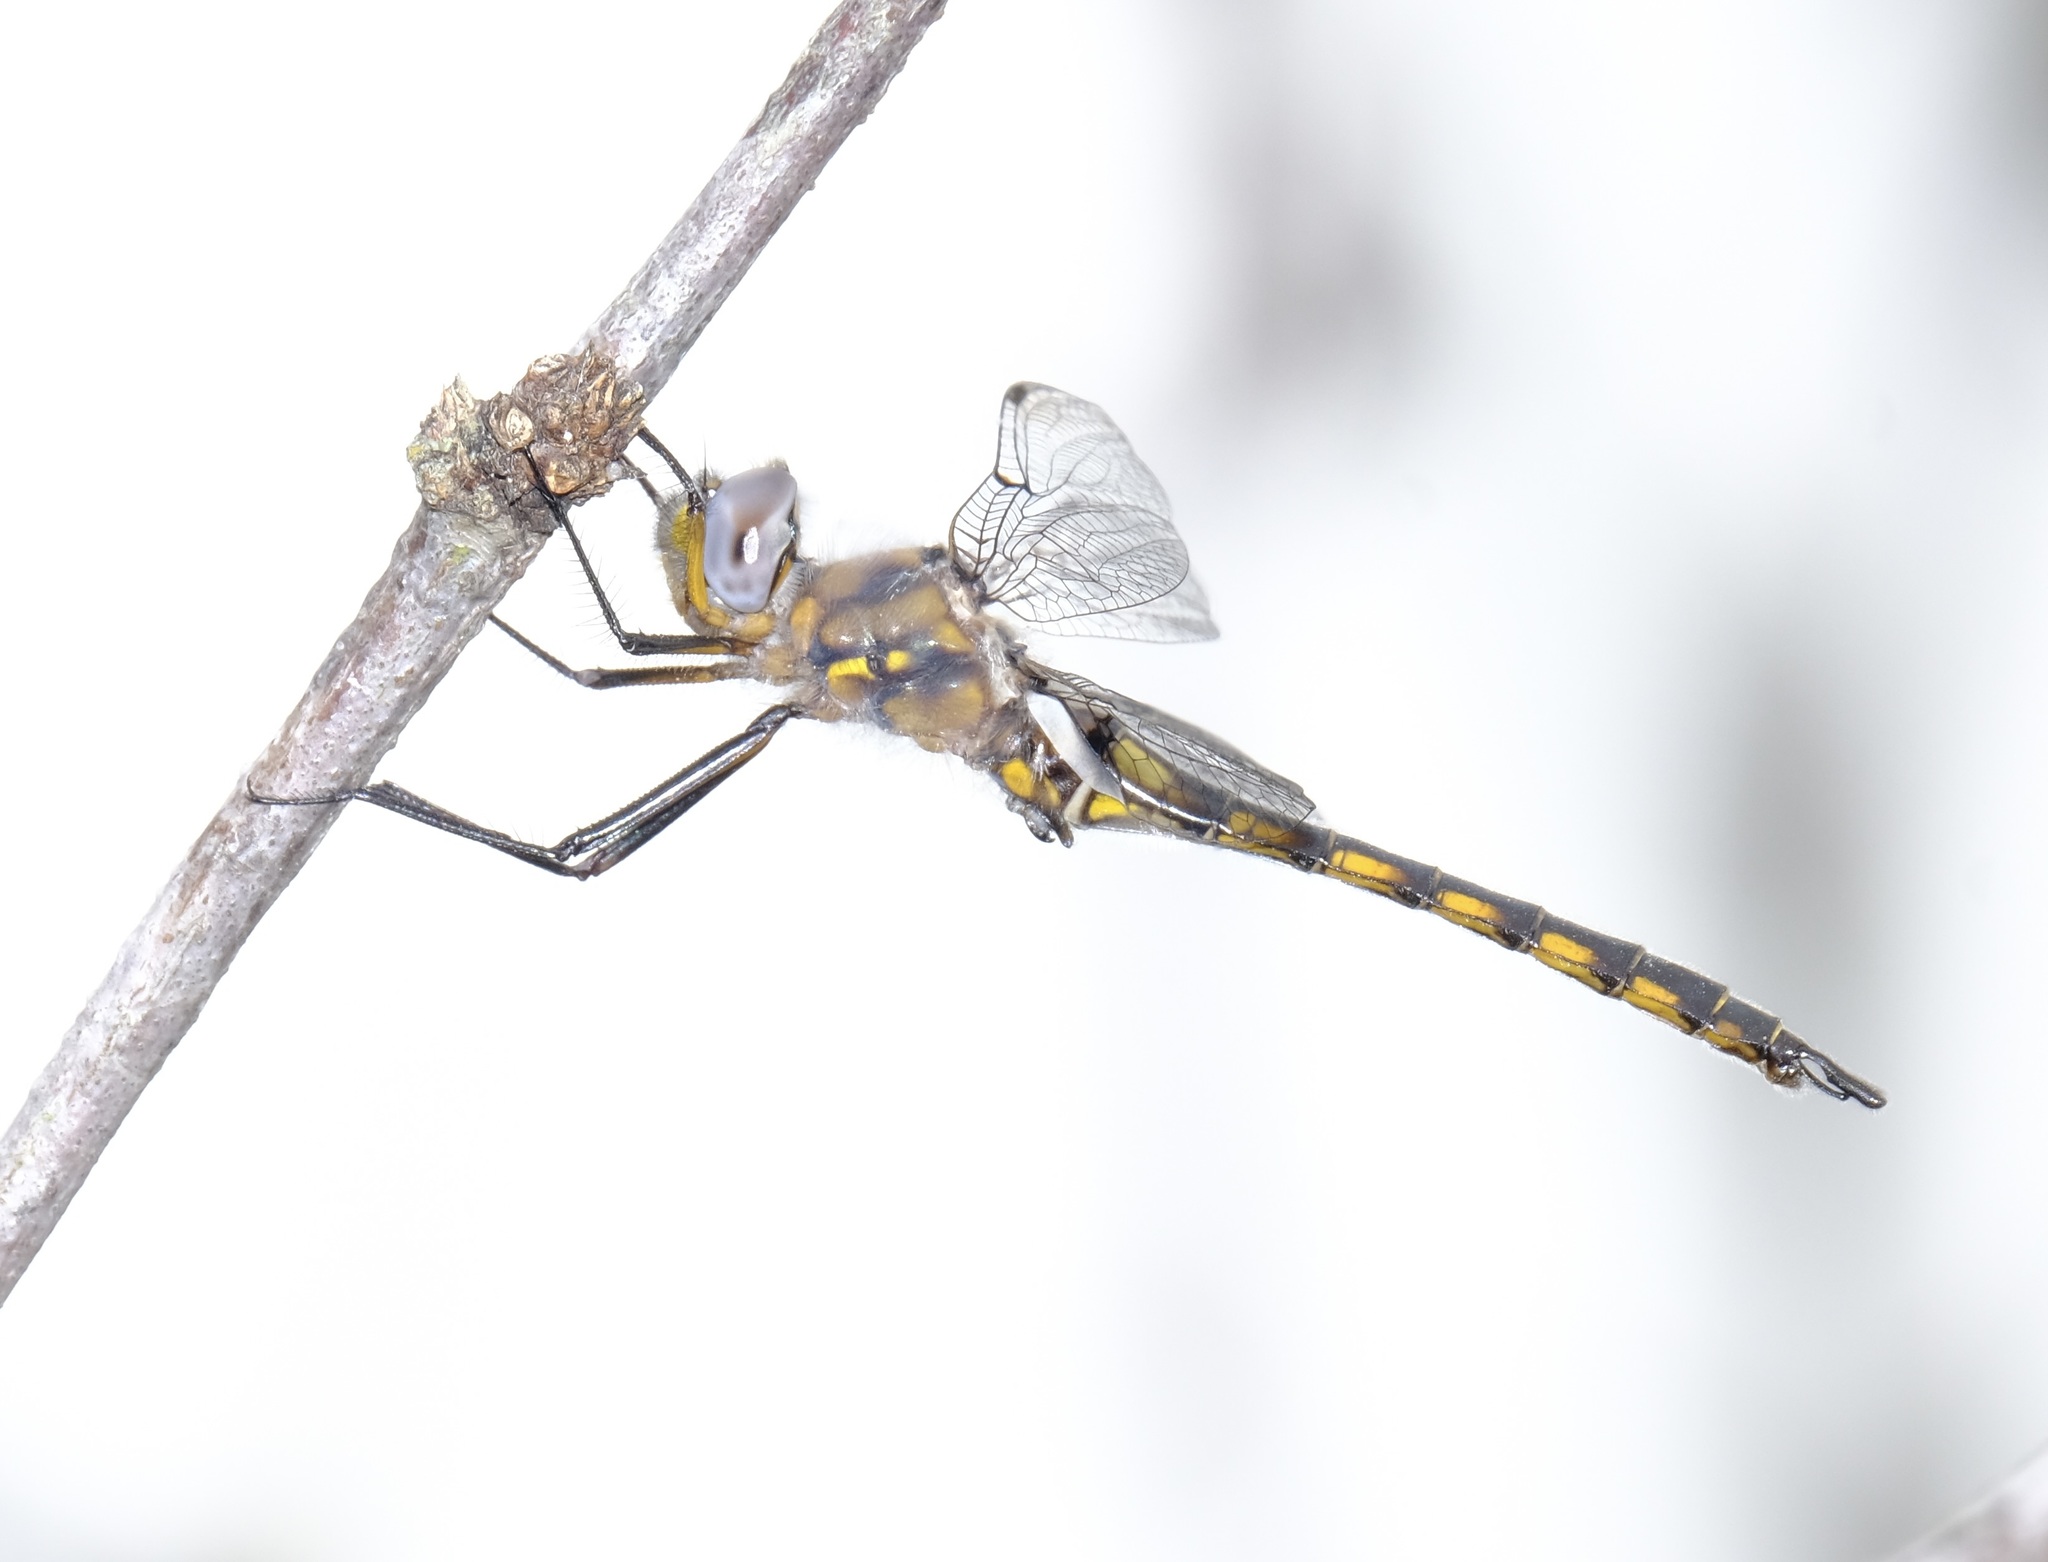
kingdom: Animalia
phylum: Arthropoda
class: Insecta
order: Odonata
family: Corduliidae
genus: Epitheca
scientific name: Epitheca petechialis
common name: Dot-winged baskettail
